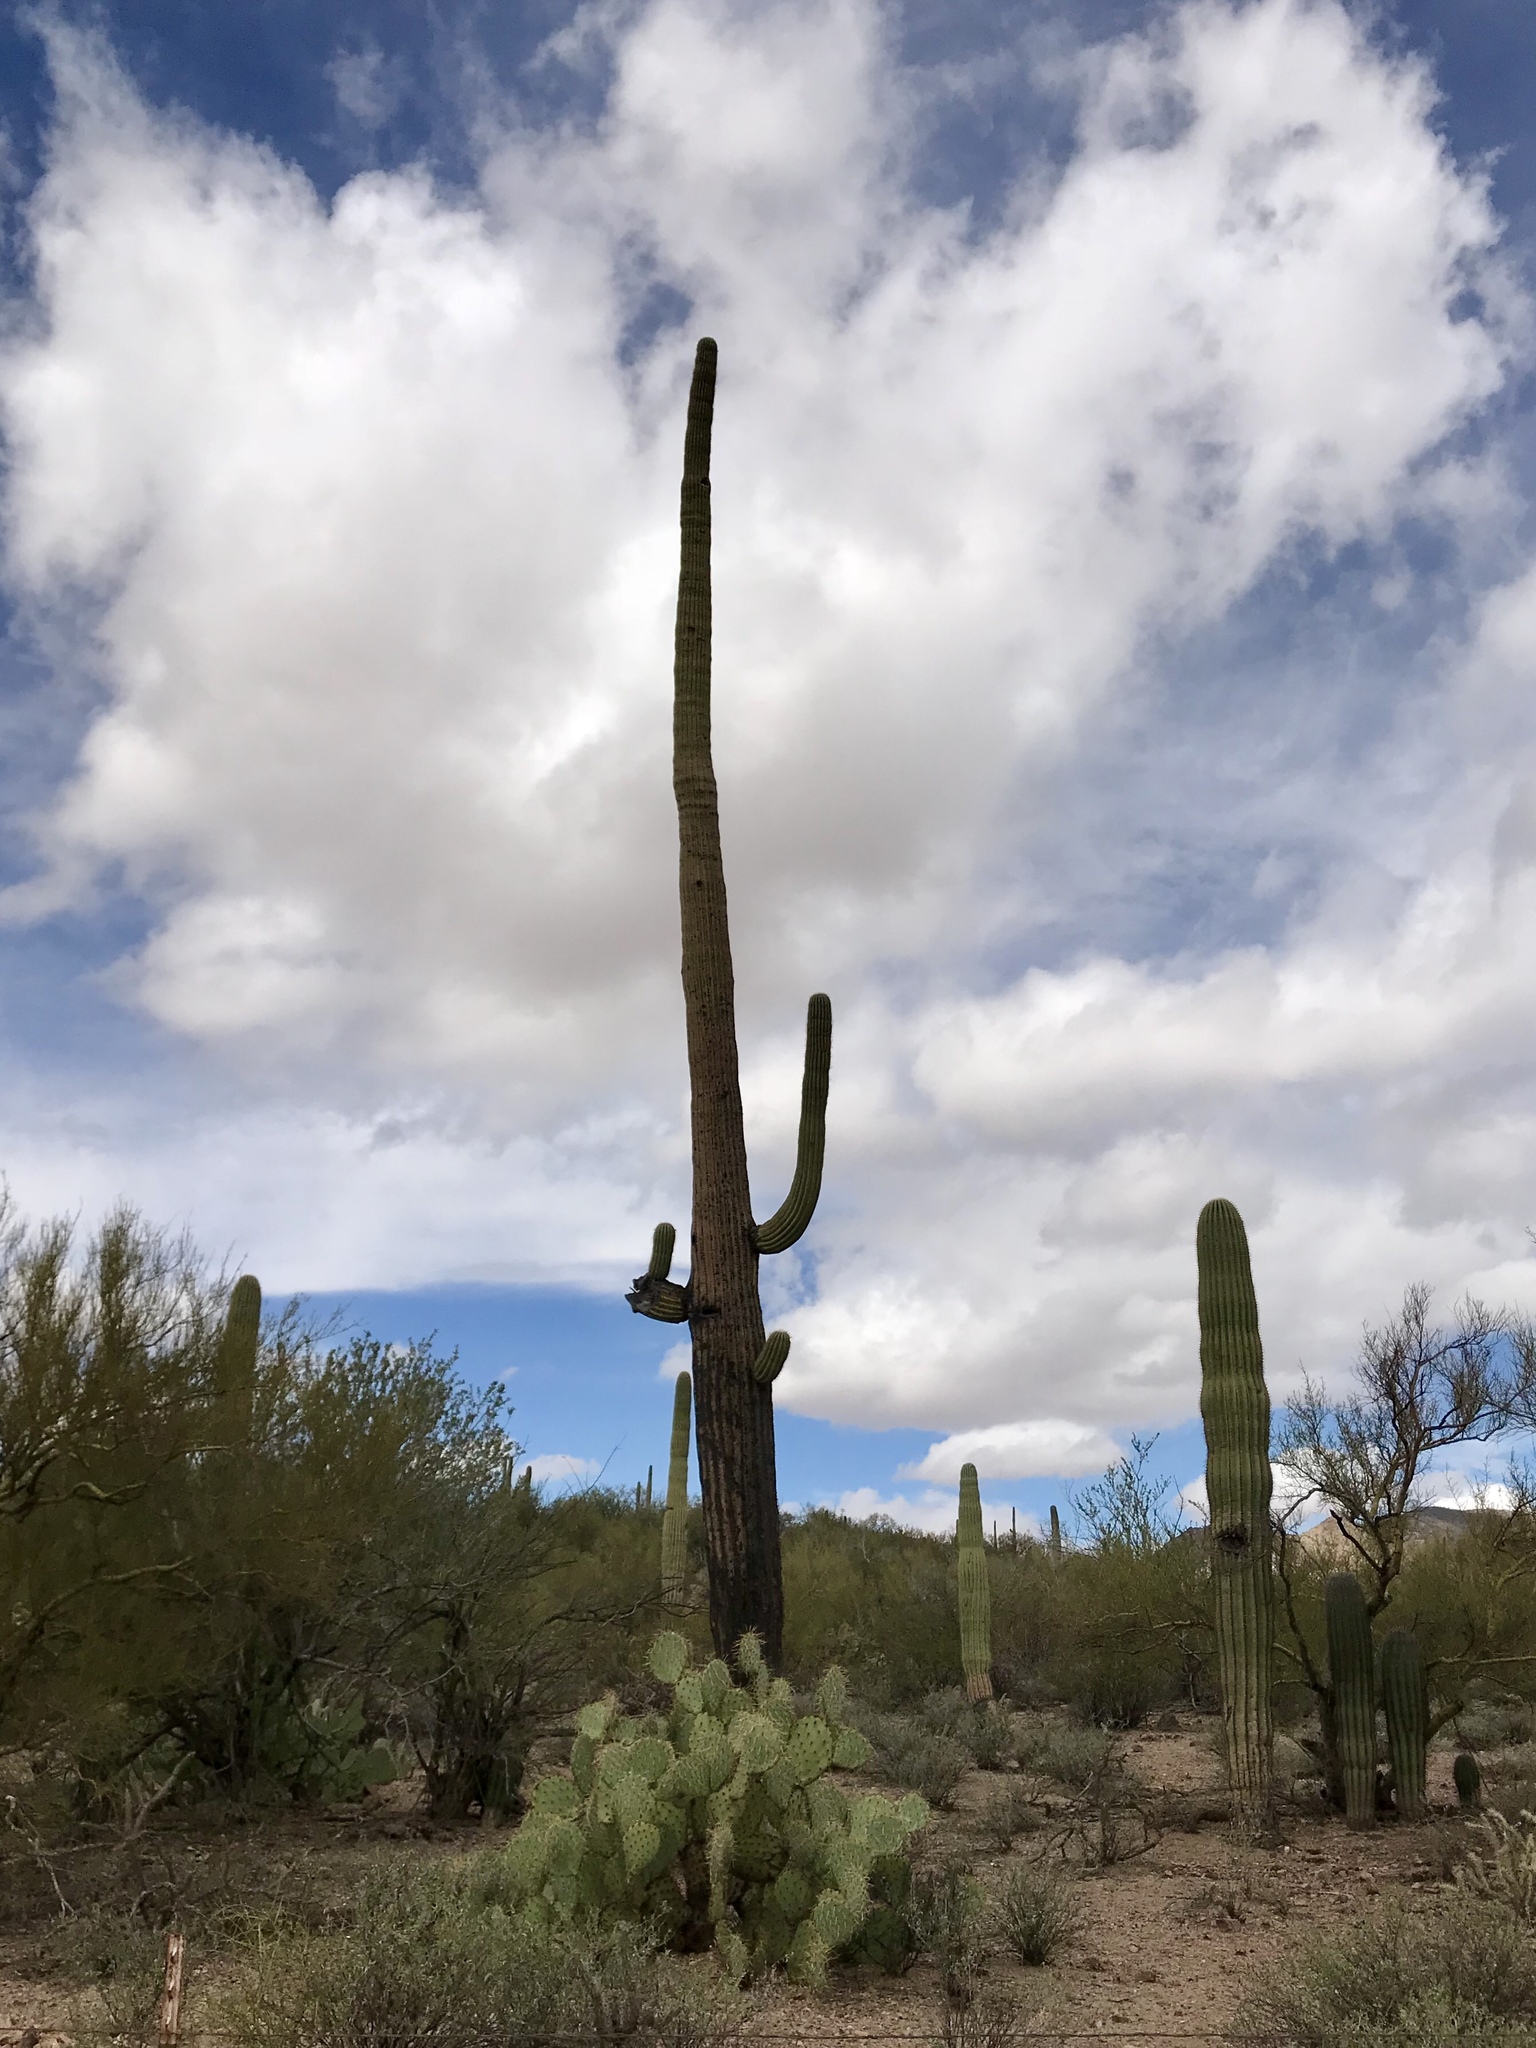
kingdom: Plantae
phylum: Tracheophyta
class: Magnoliopsida
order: Caryophyllales
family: Cactaceae
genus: Carnegiea
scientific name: Carnegiea gigantea
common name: Saguaro
